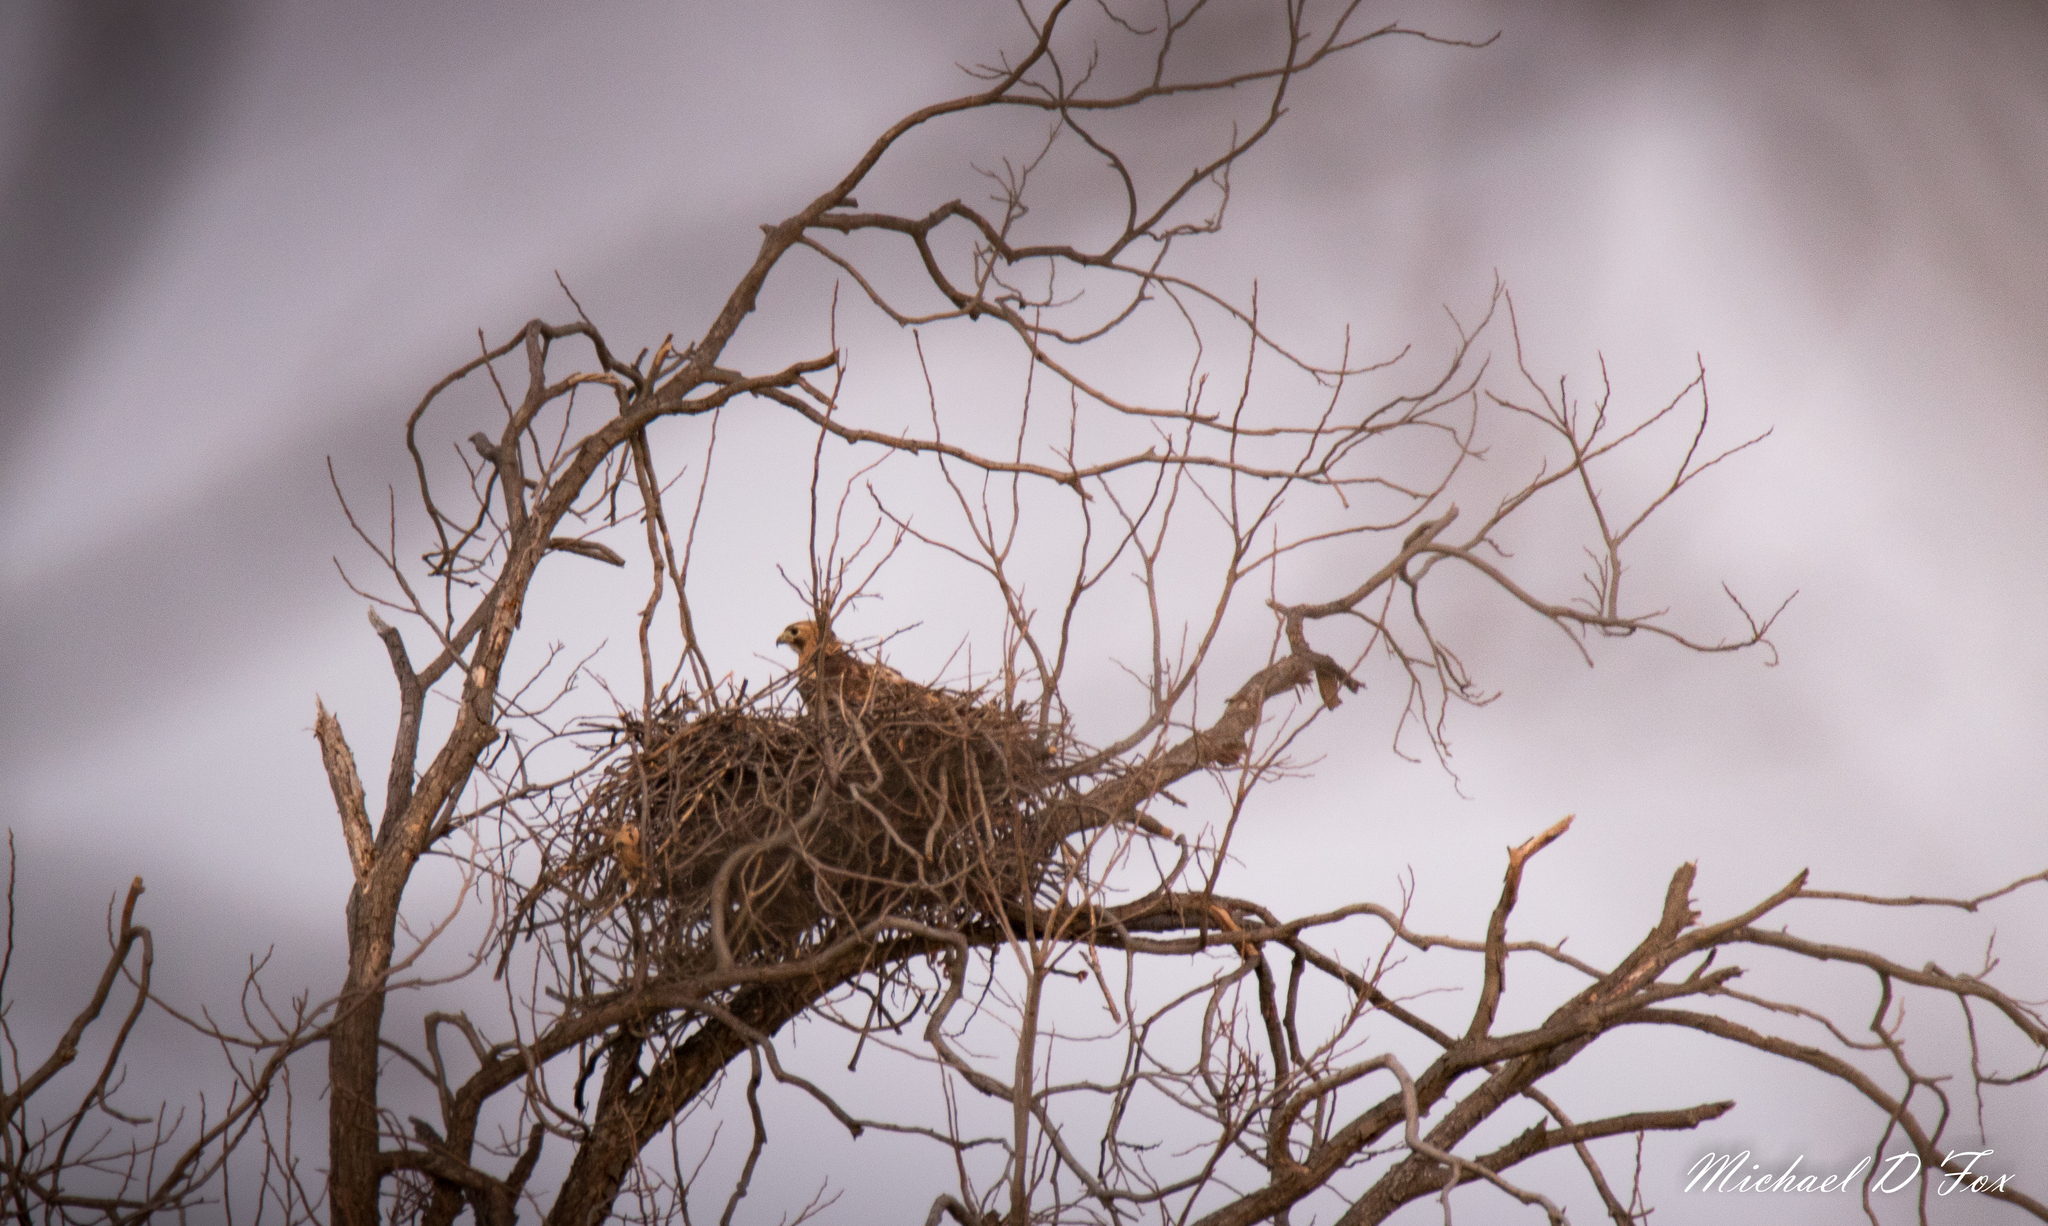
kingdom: Animalia
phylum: Chordata
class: Aves
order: Accipitriformes
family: Accipitridae
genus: Buteo
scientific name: Buteo jamaicensis
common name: Red-tailed hawk
